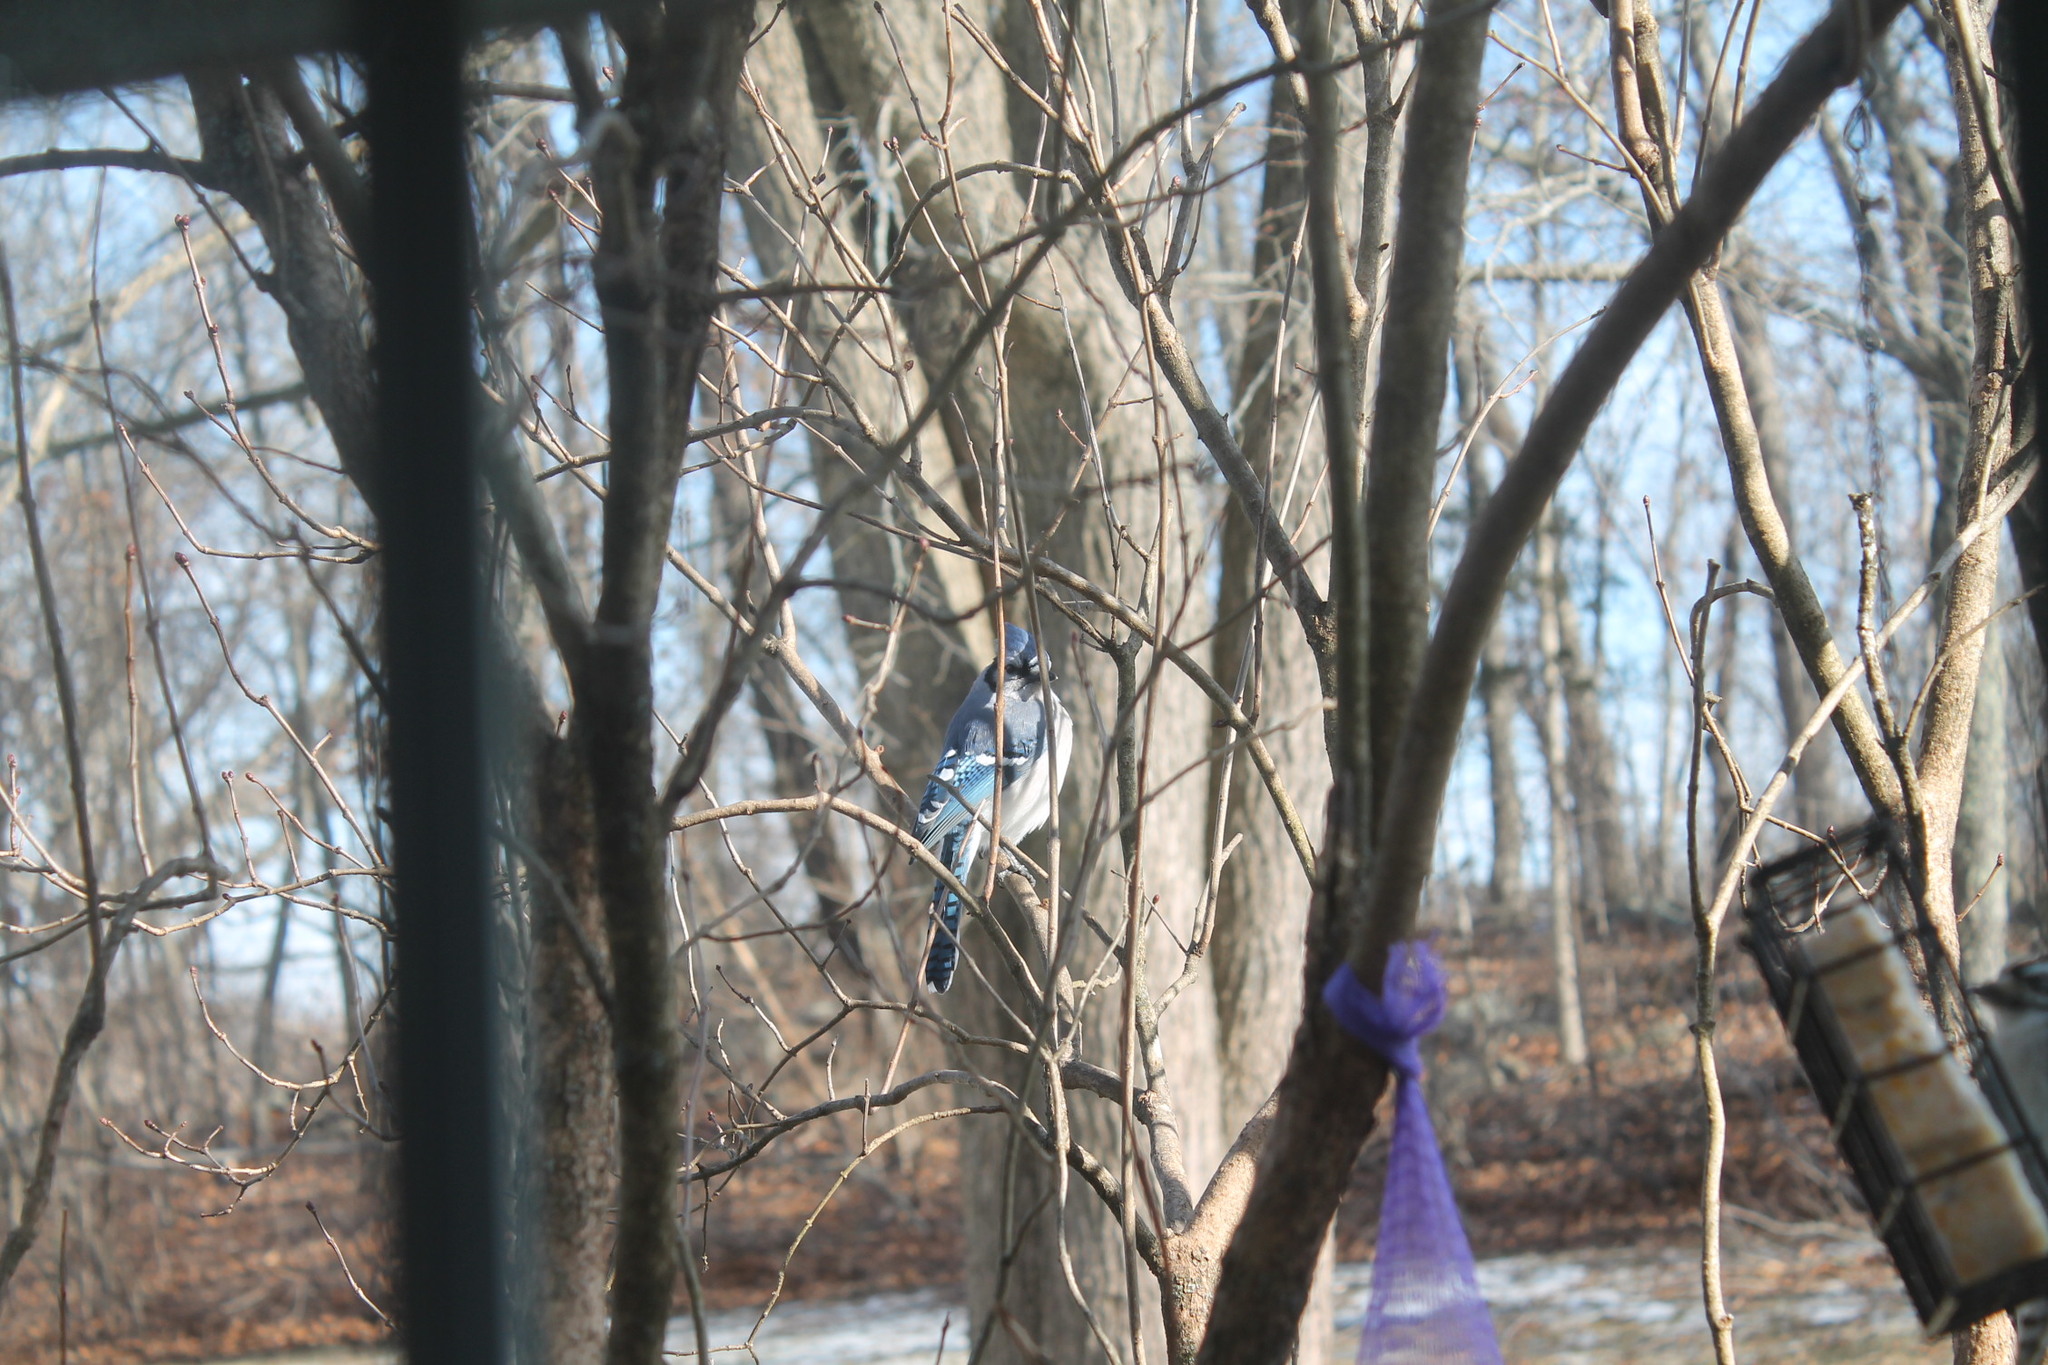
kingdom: Animalia
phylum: Chordata
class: Aves
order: Passeriformes
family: Corvidae
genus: Cyanocitta
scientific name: Cyanocitta cristata
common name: Blue jay
